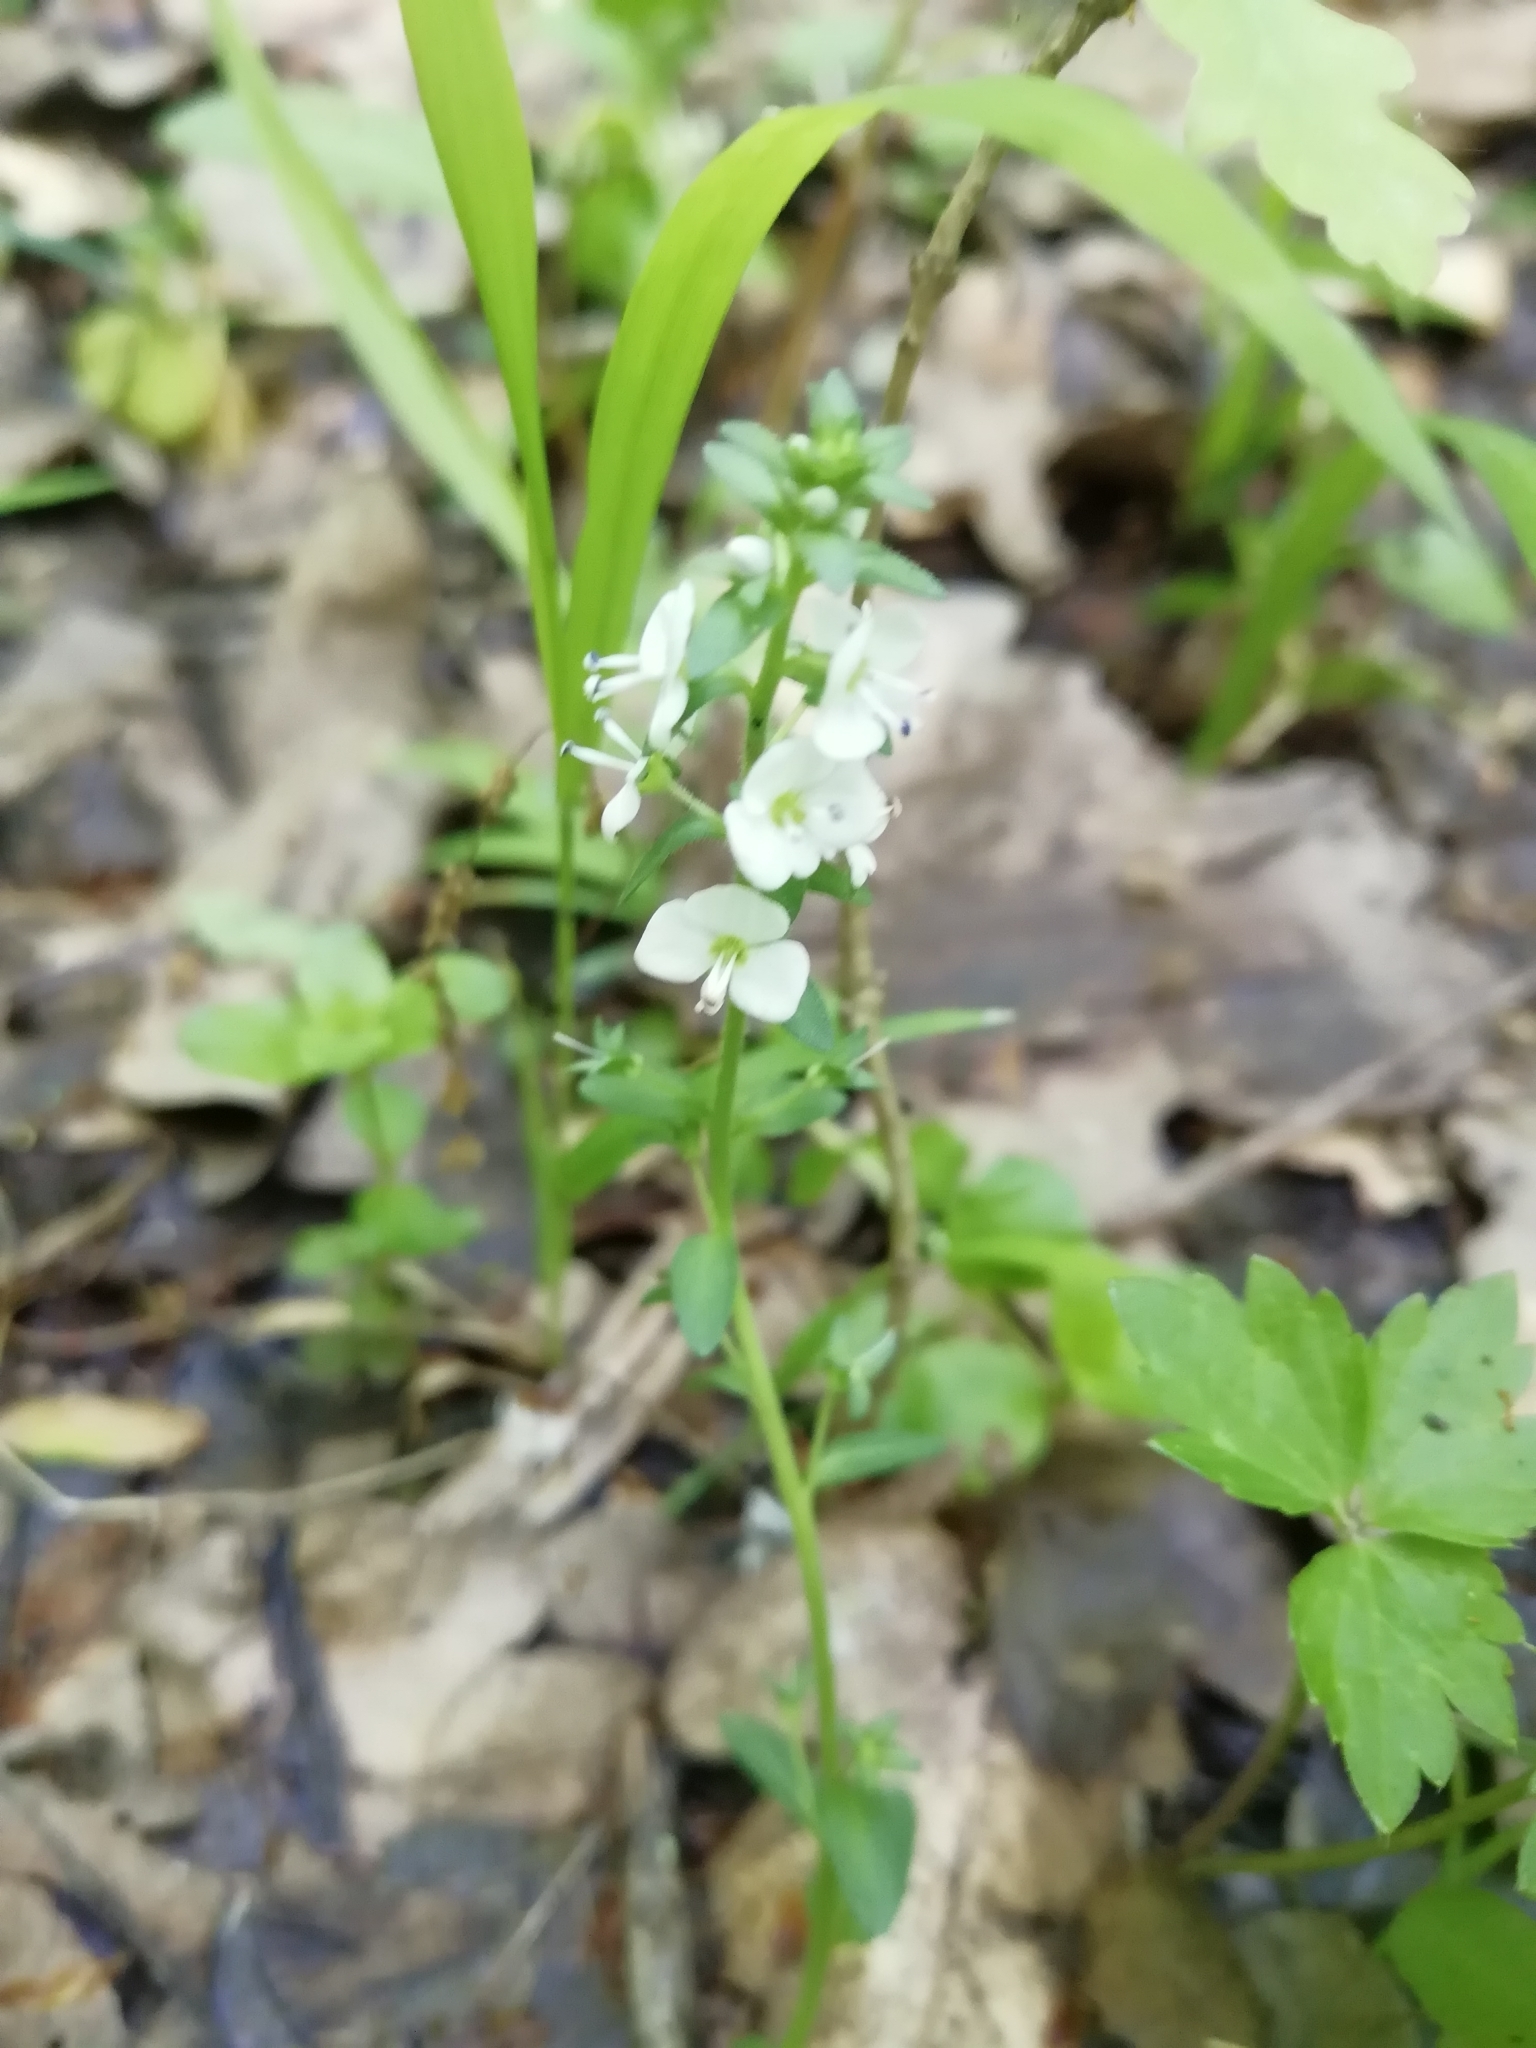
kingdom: Plantae
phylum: Tracheophyta
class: Magnoliopsida
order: Lamiales
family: Plantaginaceae
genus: Veronica
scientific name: Veronica serpyllifolia
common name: Thyme-leaved speedwell
